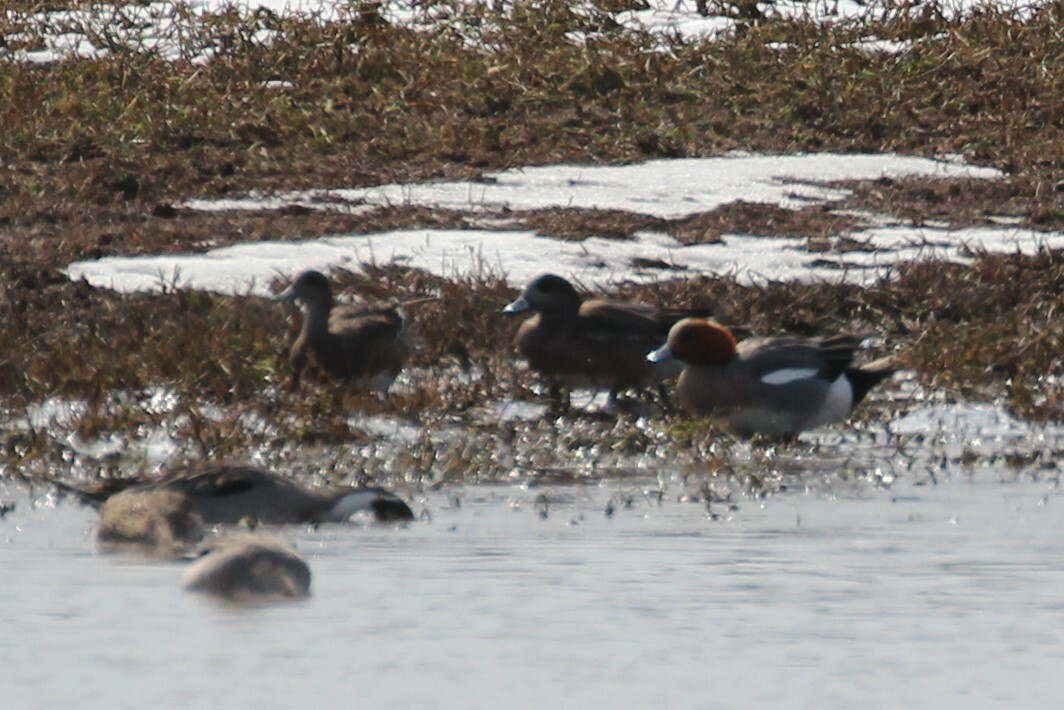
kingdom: Animalia
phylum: Chordata
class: Aves
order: Anseriformes
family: Anatidae
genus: Mareca
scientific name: Mareca penelope
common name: Eurasian wigeon
